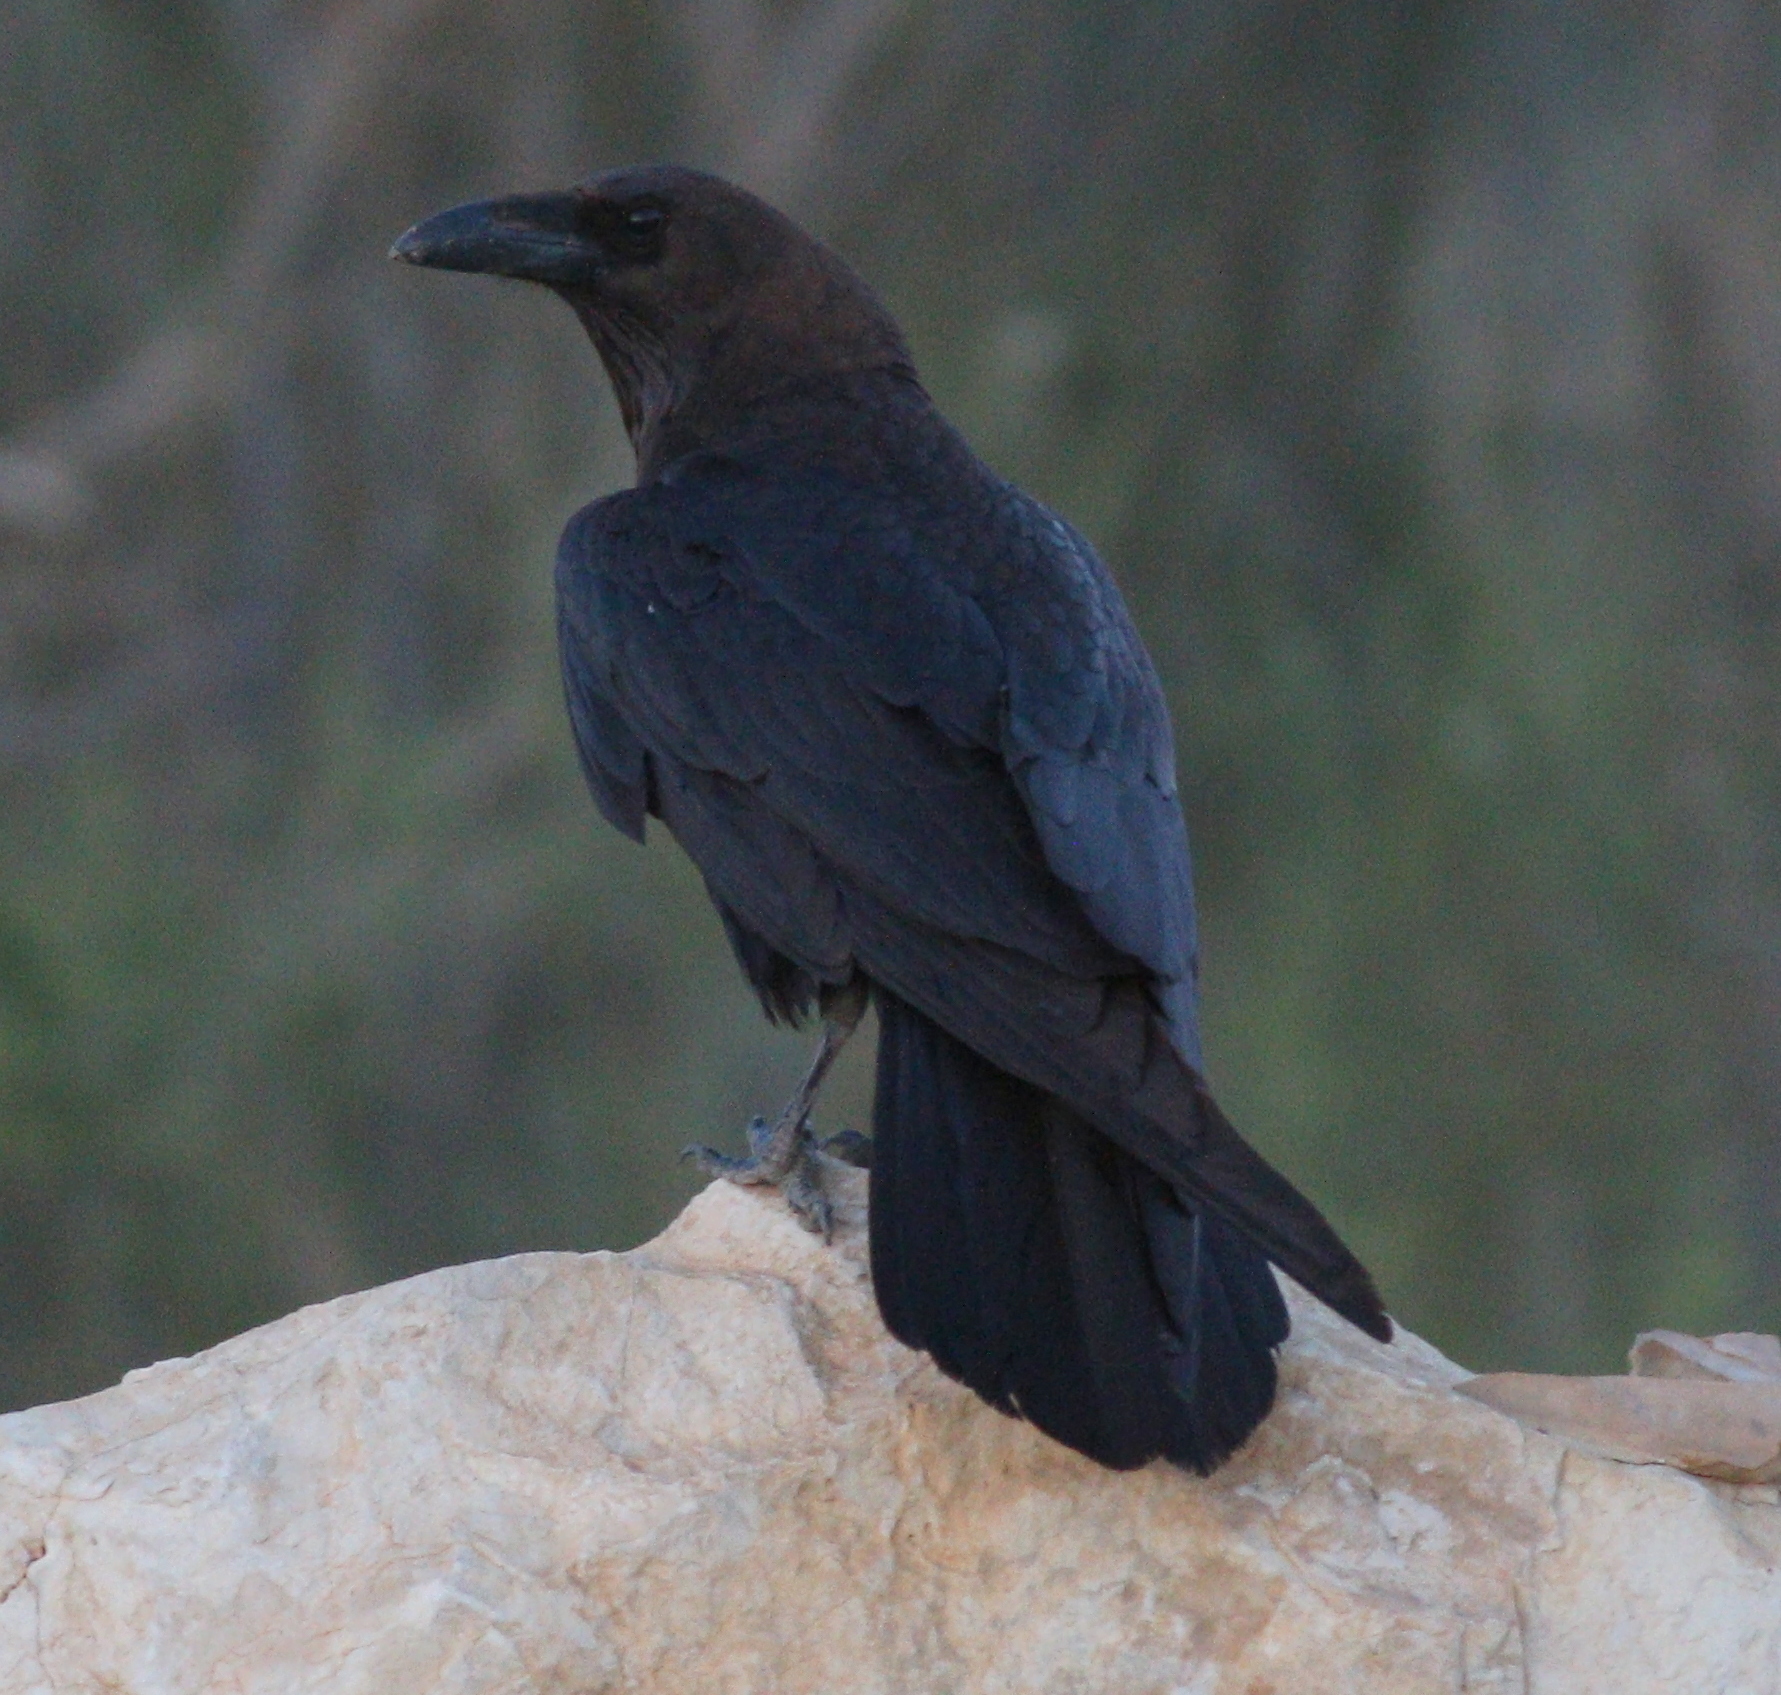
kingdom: Animalia
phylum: Chordata
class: Aves
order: Passeriformes
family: Corvidae
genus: Corvus
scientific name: Corvus ruficollis
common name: Brown-necked raven
